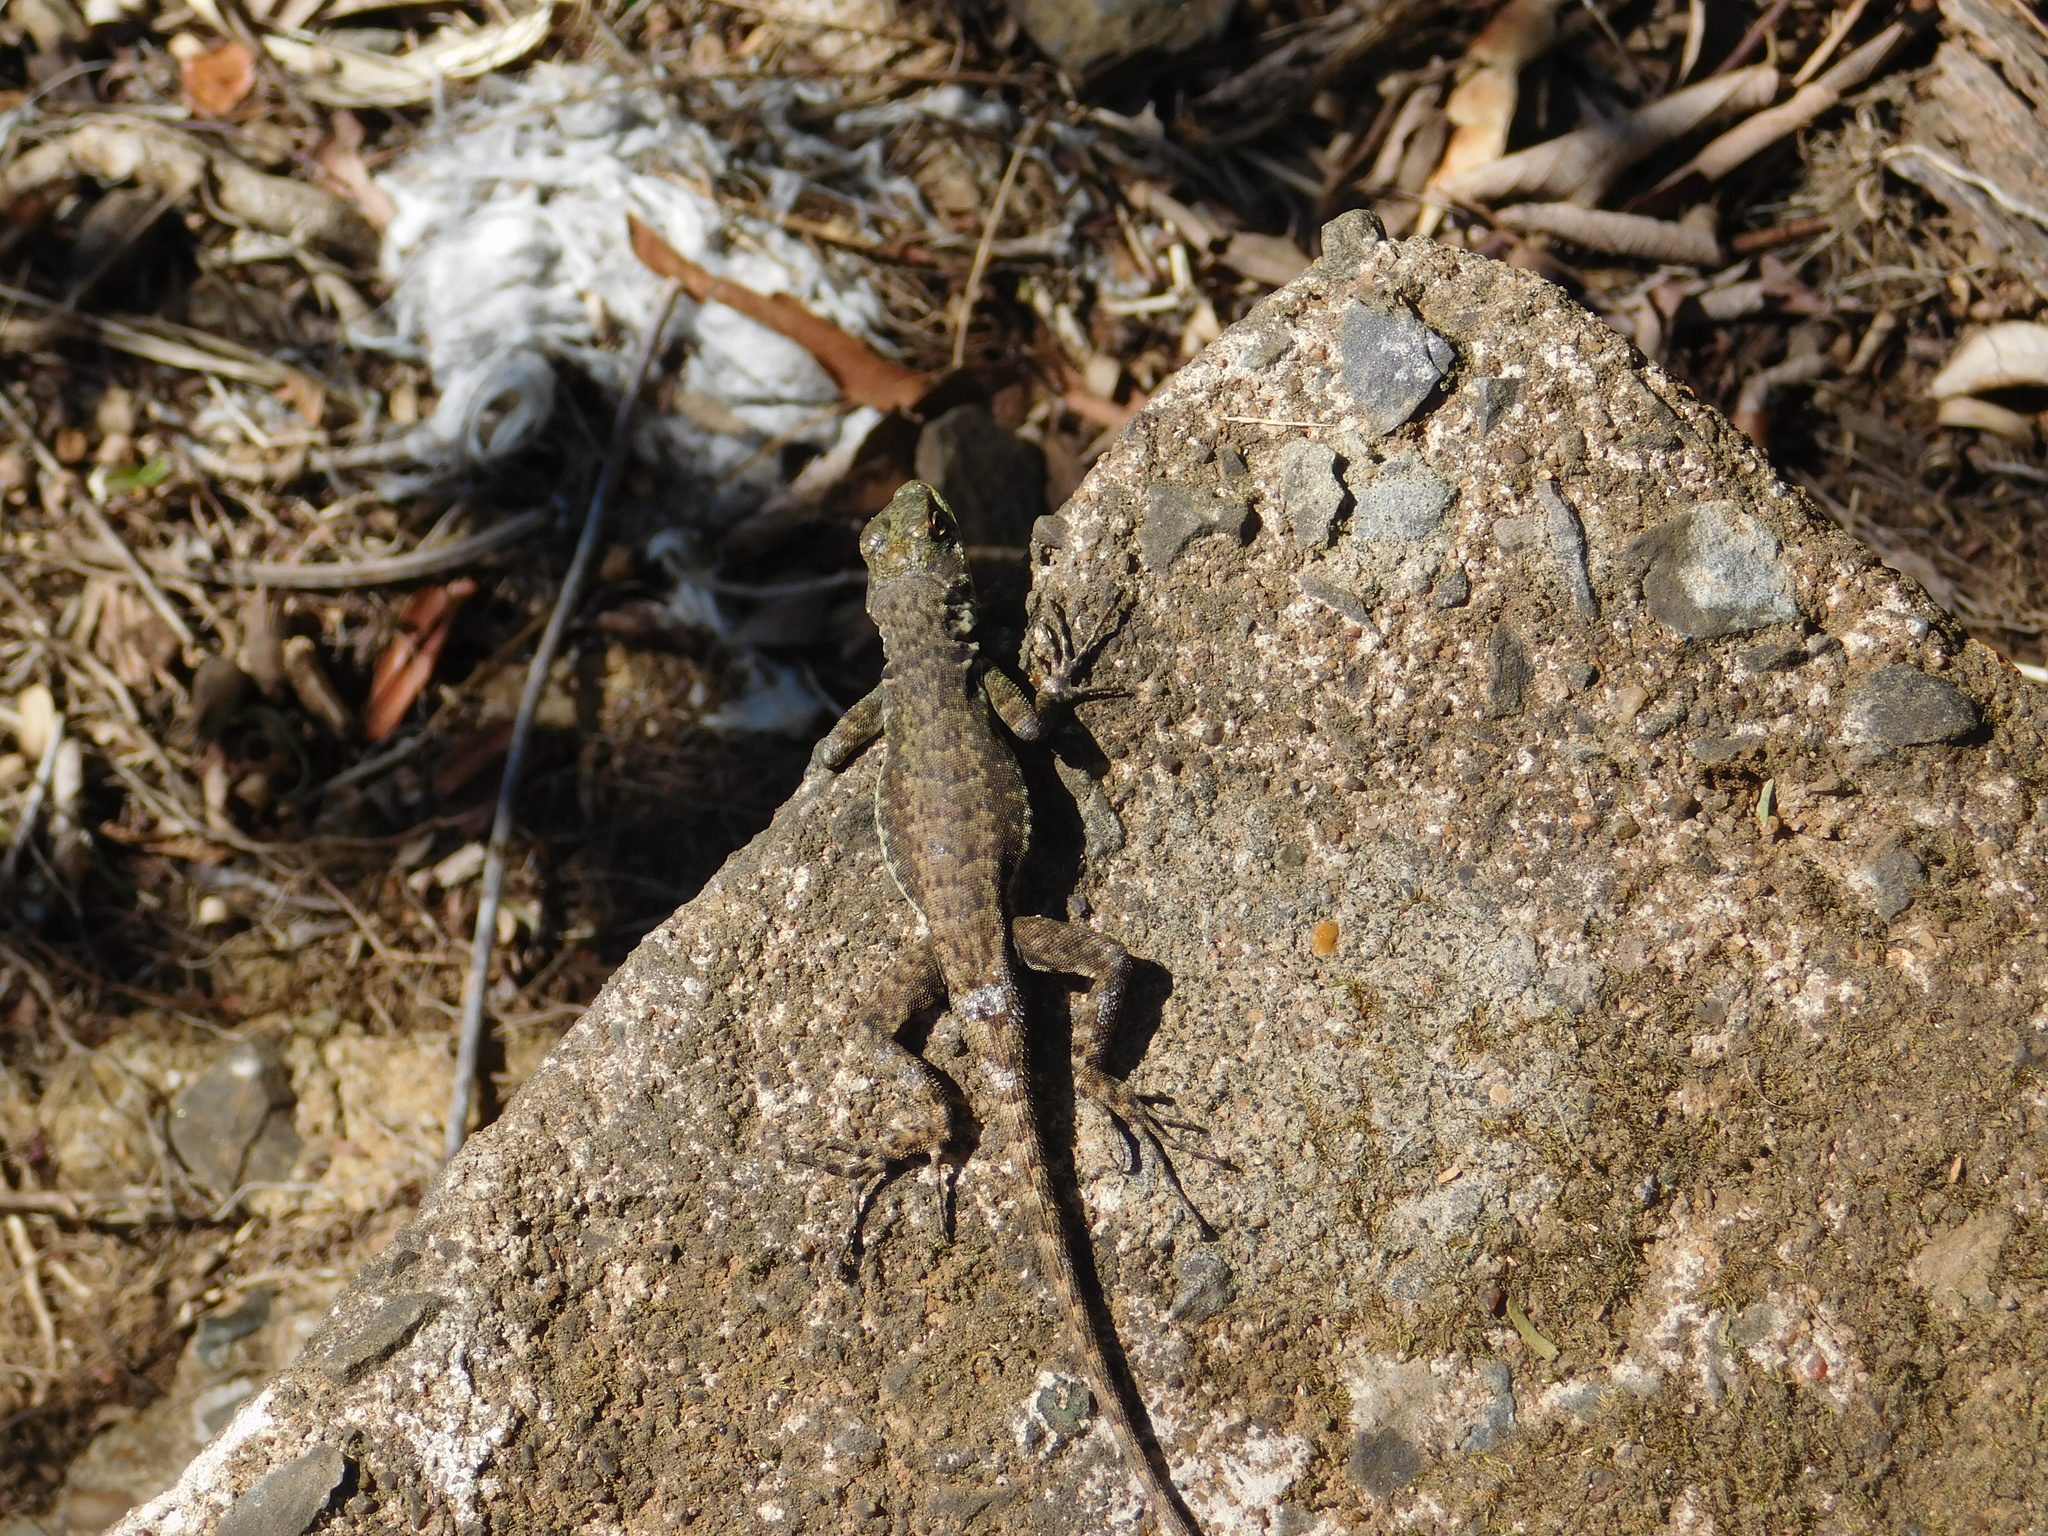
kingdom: Animalia
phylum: Chordata
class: Squamata
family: Tropiduridae
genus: Tropidurus
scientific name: Tropidurus catalanensis
